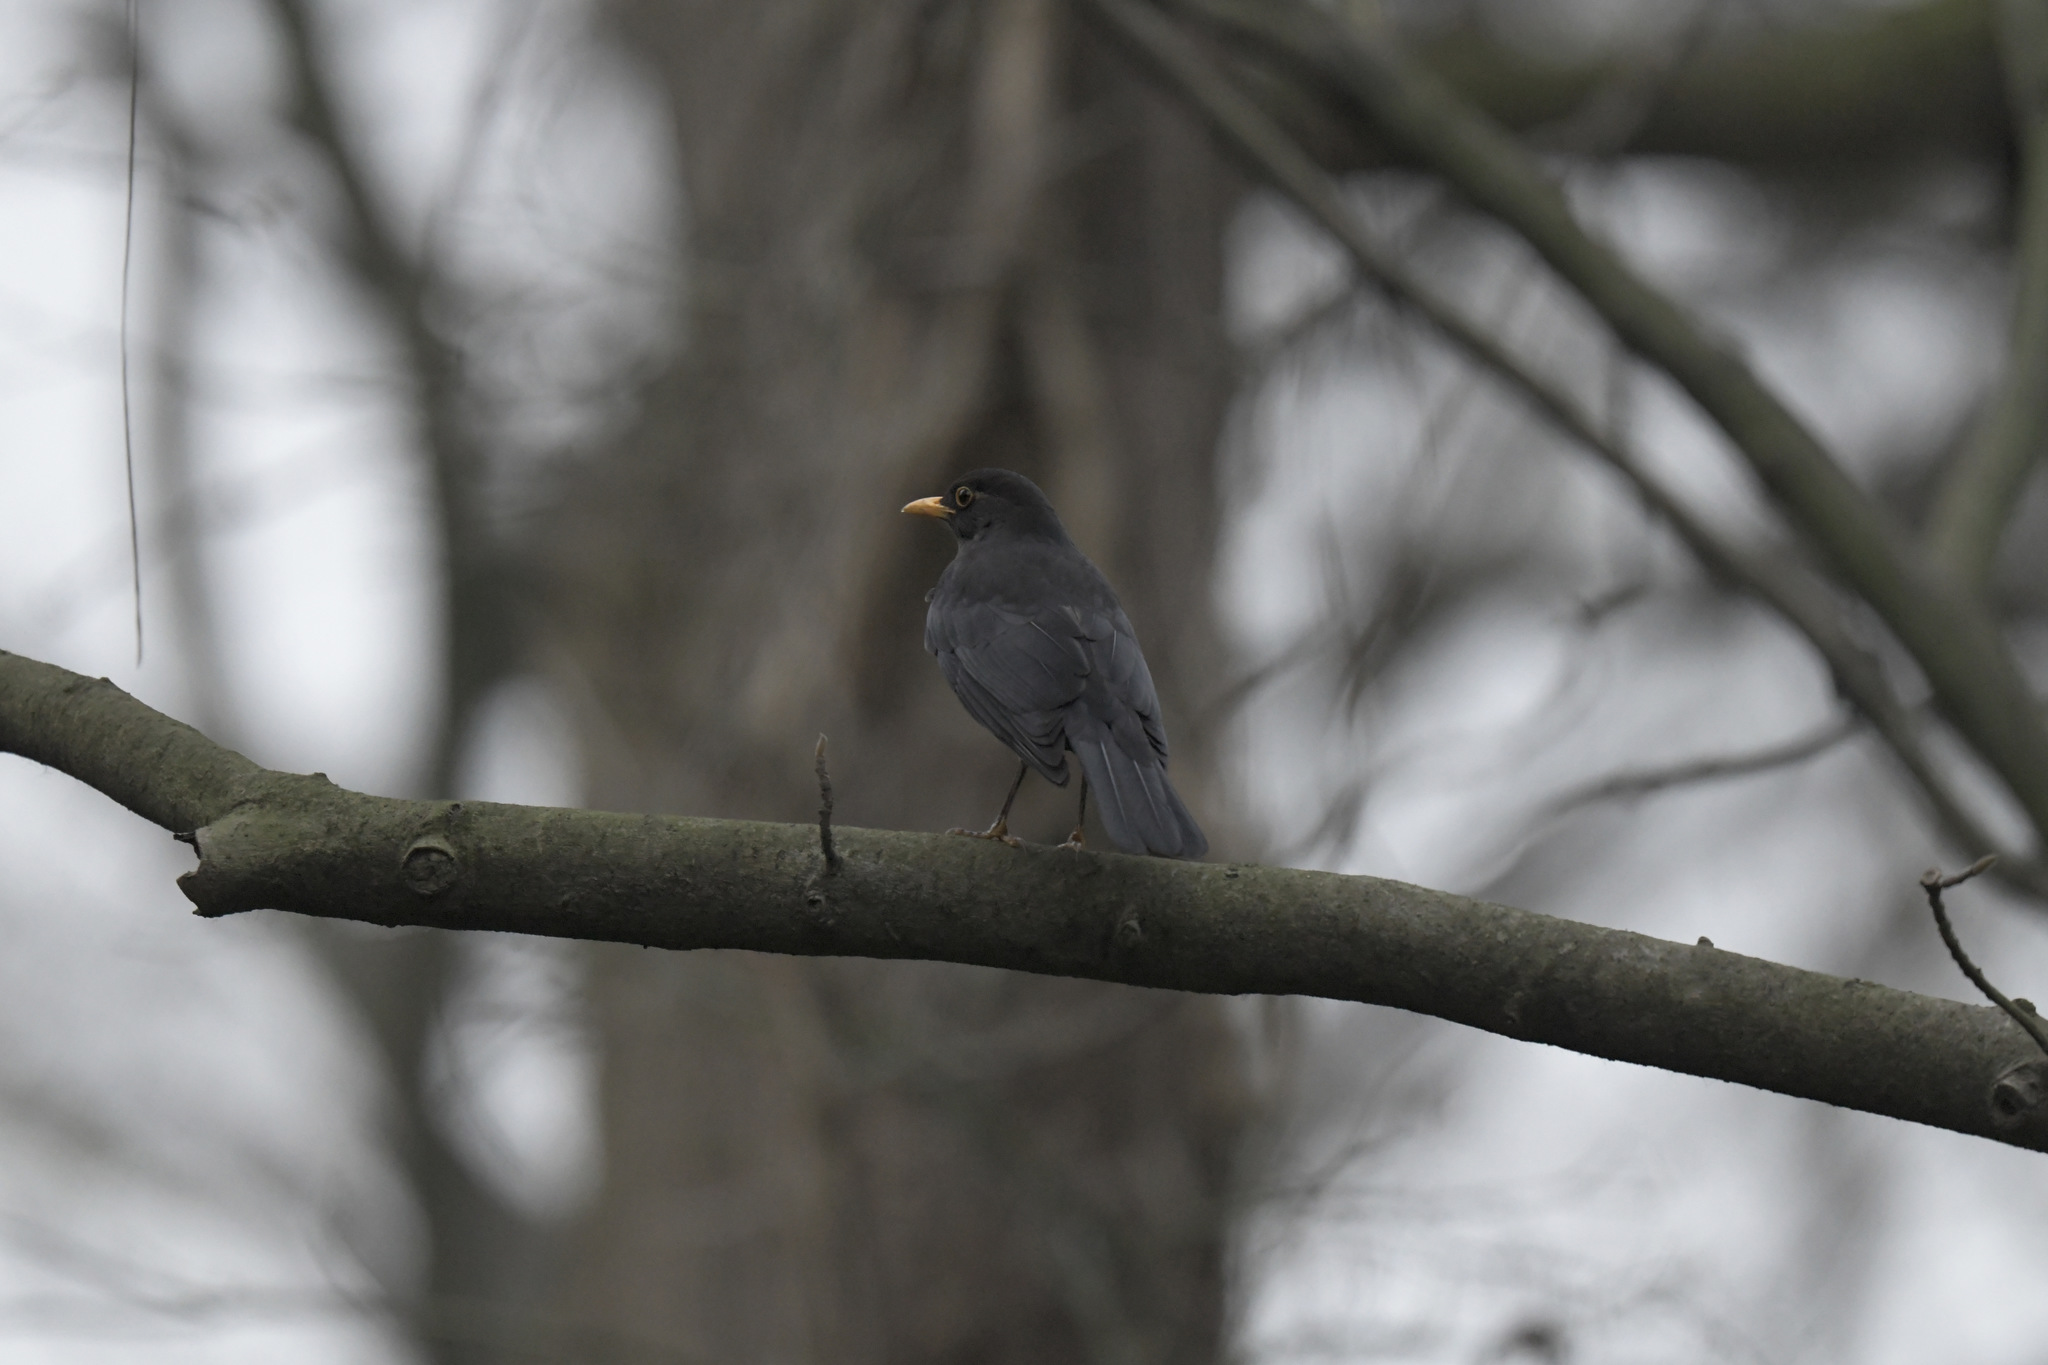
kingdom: Animalia
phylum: Chordata
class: Aves
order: Passeriformes
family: Turdidae
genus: Turdus
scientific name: Turdus mandarinus
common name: Chinese blackbird
